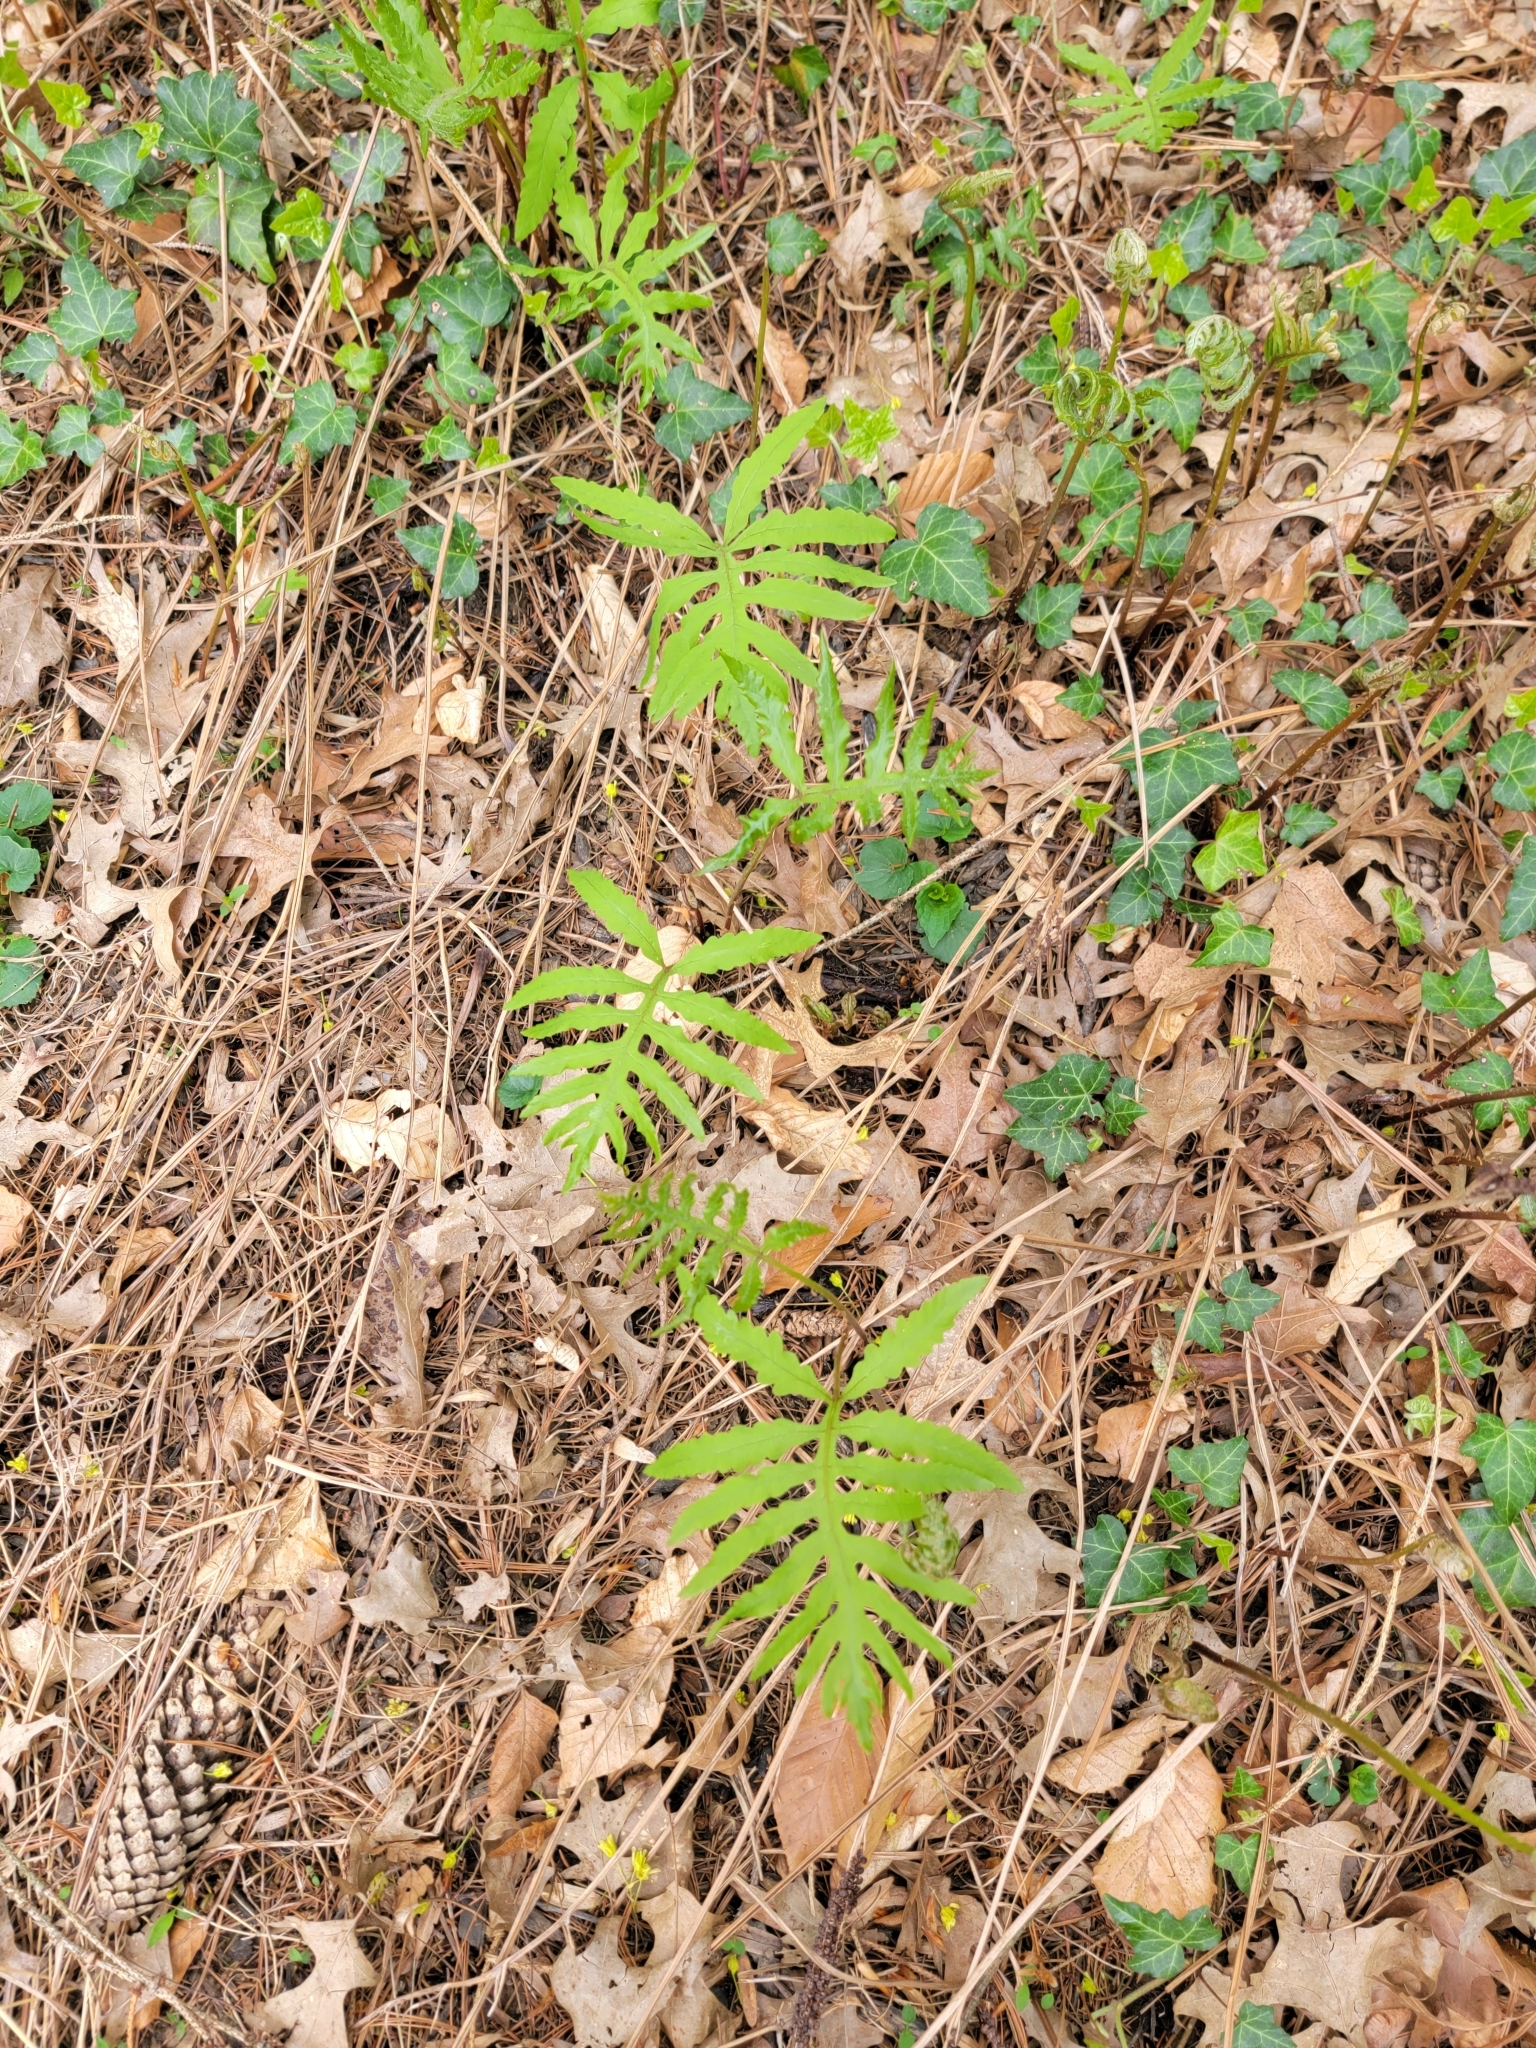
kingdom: Plantae
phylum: Tracheophyta
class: Polypodiopsida
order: Polypodiales
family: Onocleaceae
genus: Onoclea
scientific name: Onoclea sensibilis
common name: Sensitive fern
